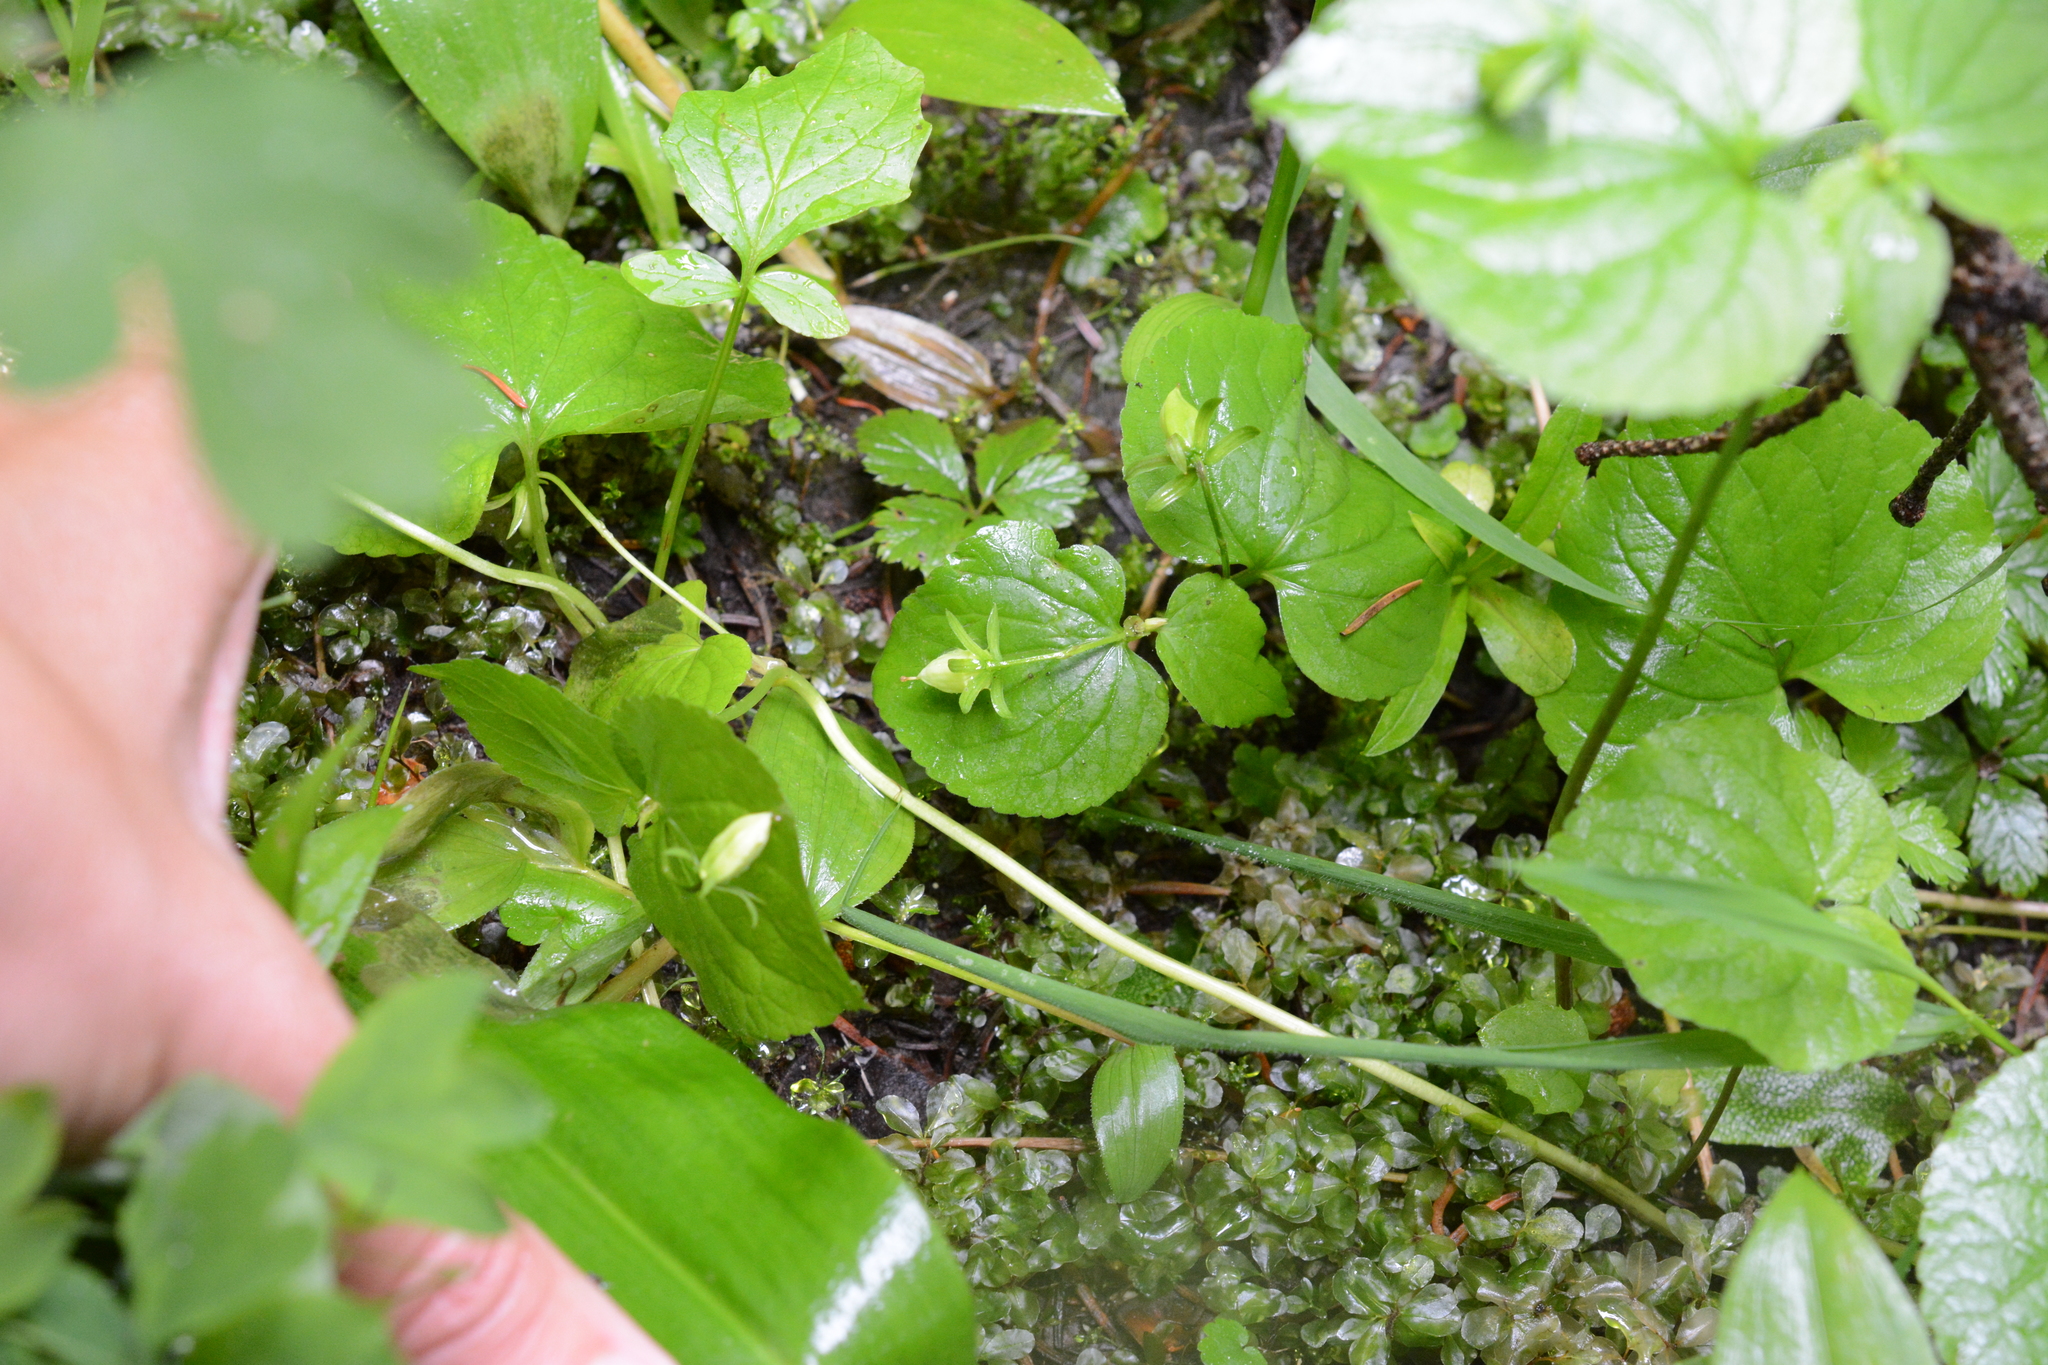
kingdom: Plantae
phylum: Tracheophyta
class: Magnoliopsida
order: Malpighiales
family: Violaceae
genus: Viola
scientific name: Viola glabella
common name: Stream violet
